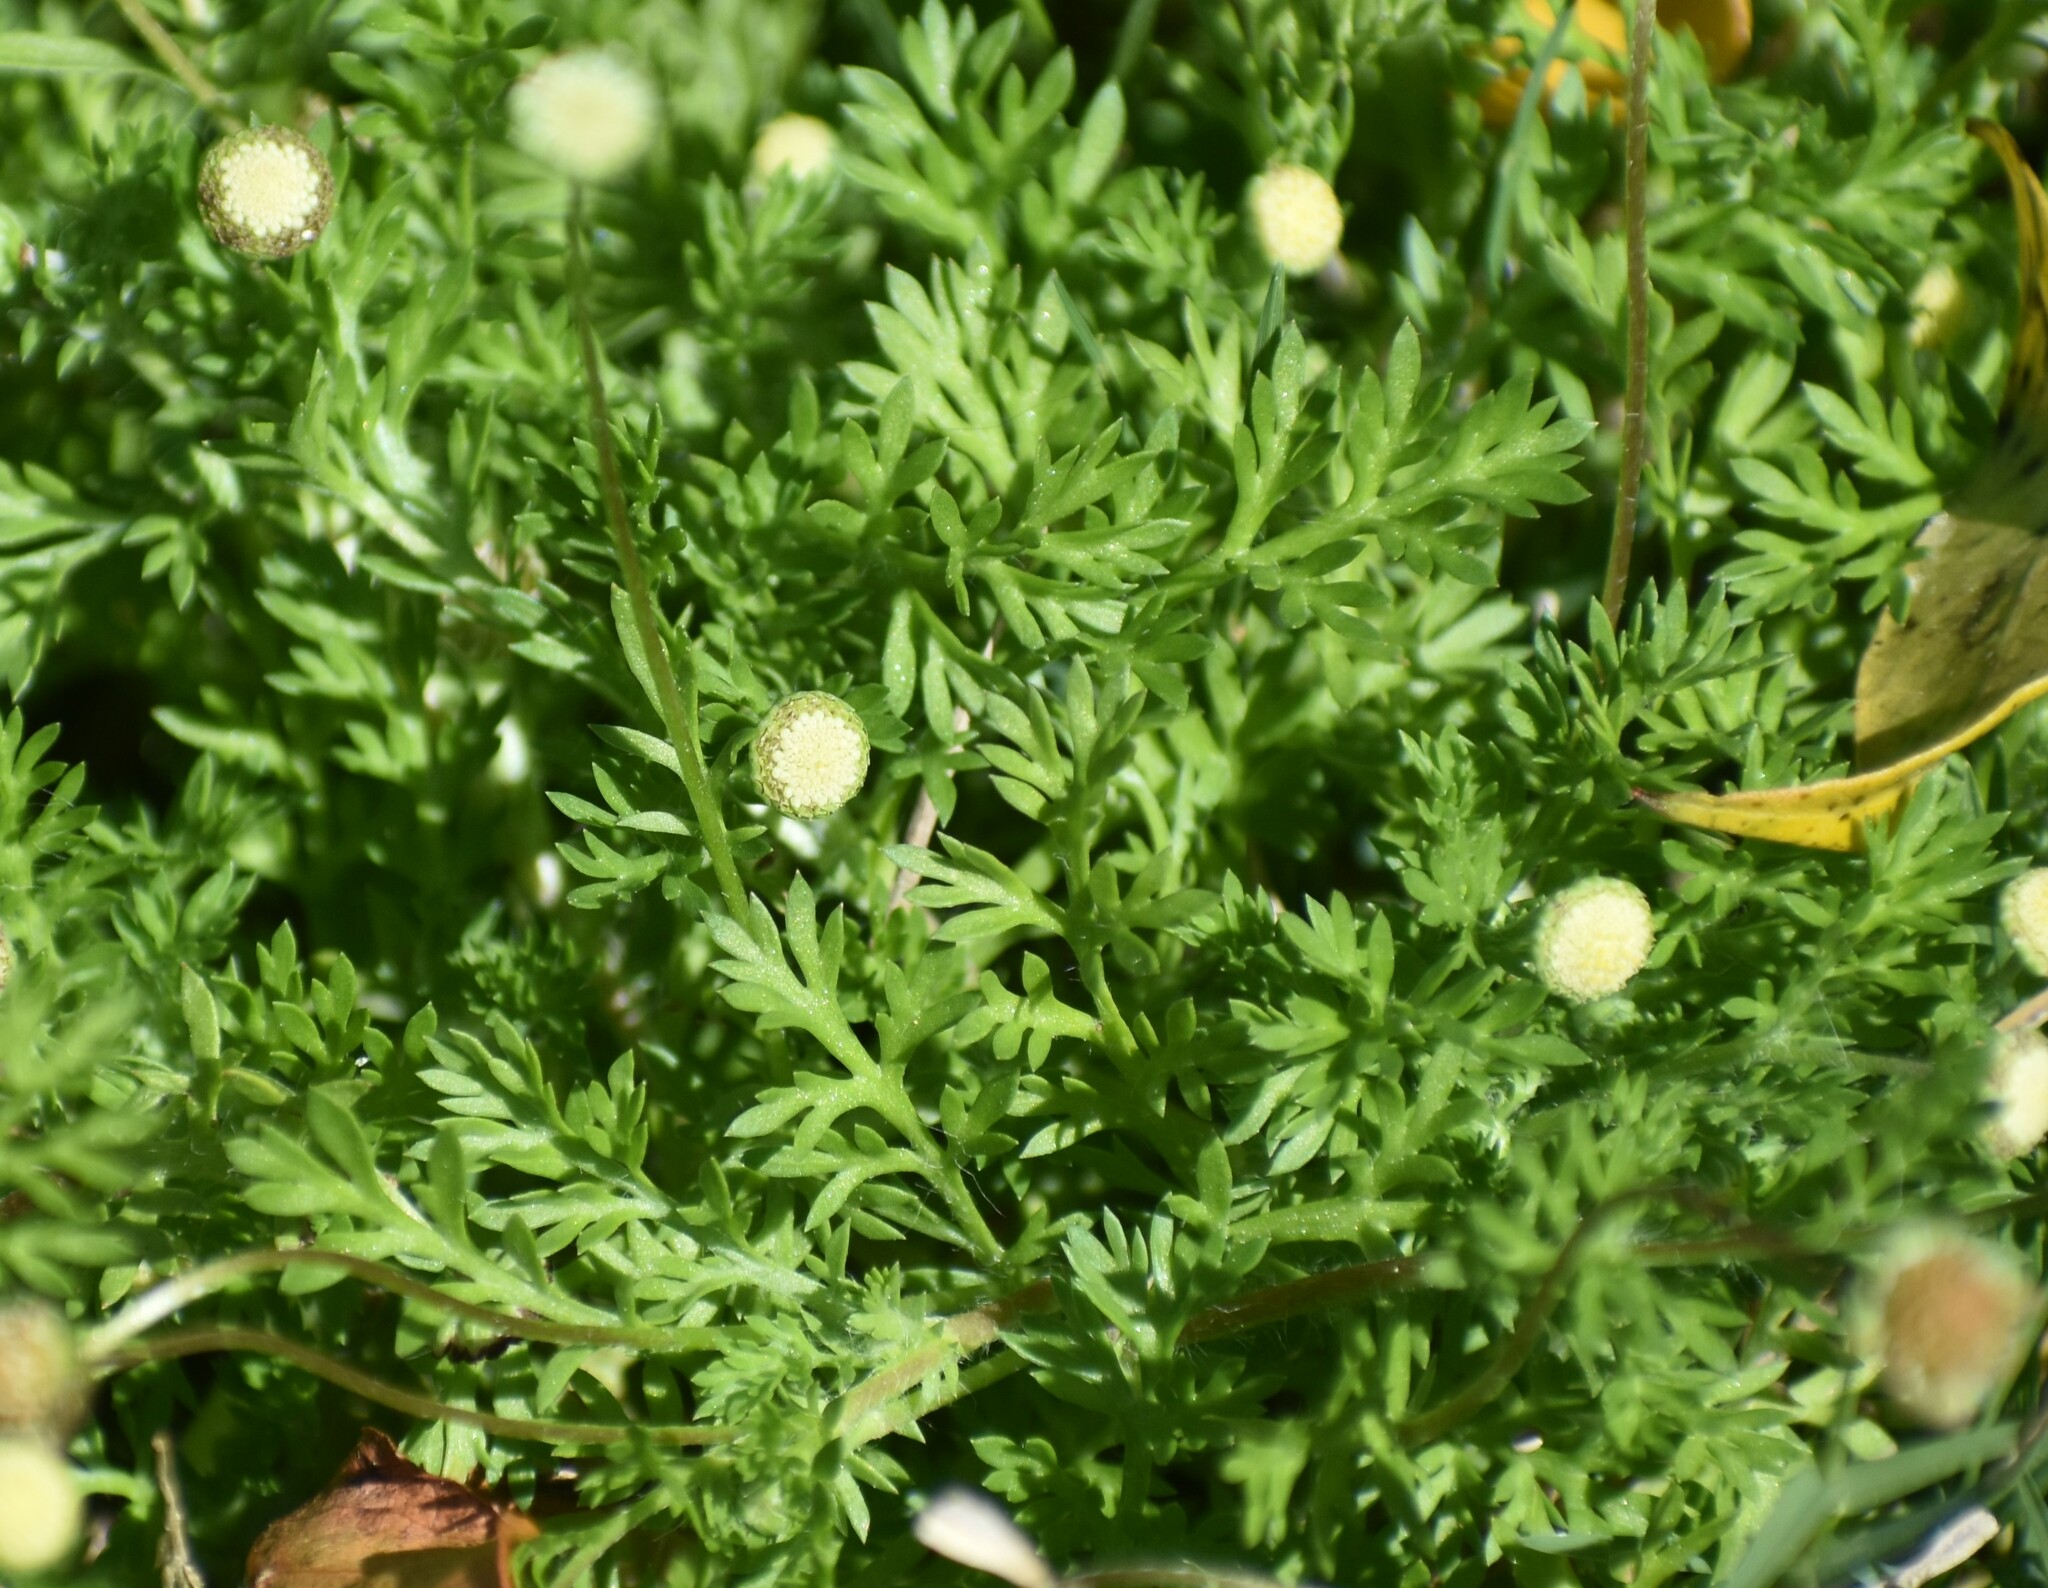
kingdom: Plantae
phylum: Tracheophyta
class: Magnoliopsida
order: Asterales
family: Asteraceae
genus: Cotula
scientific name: Cotula australis
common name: Australian waterbuttons
